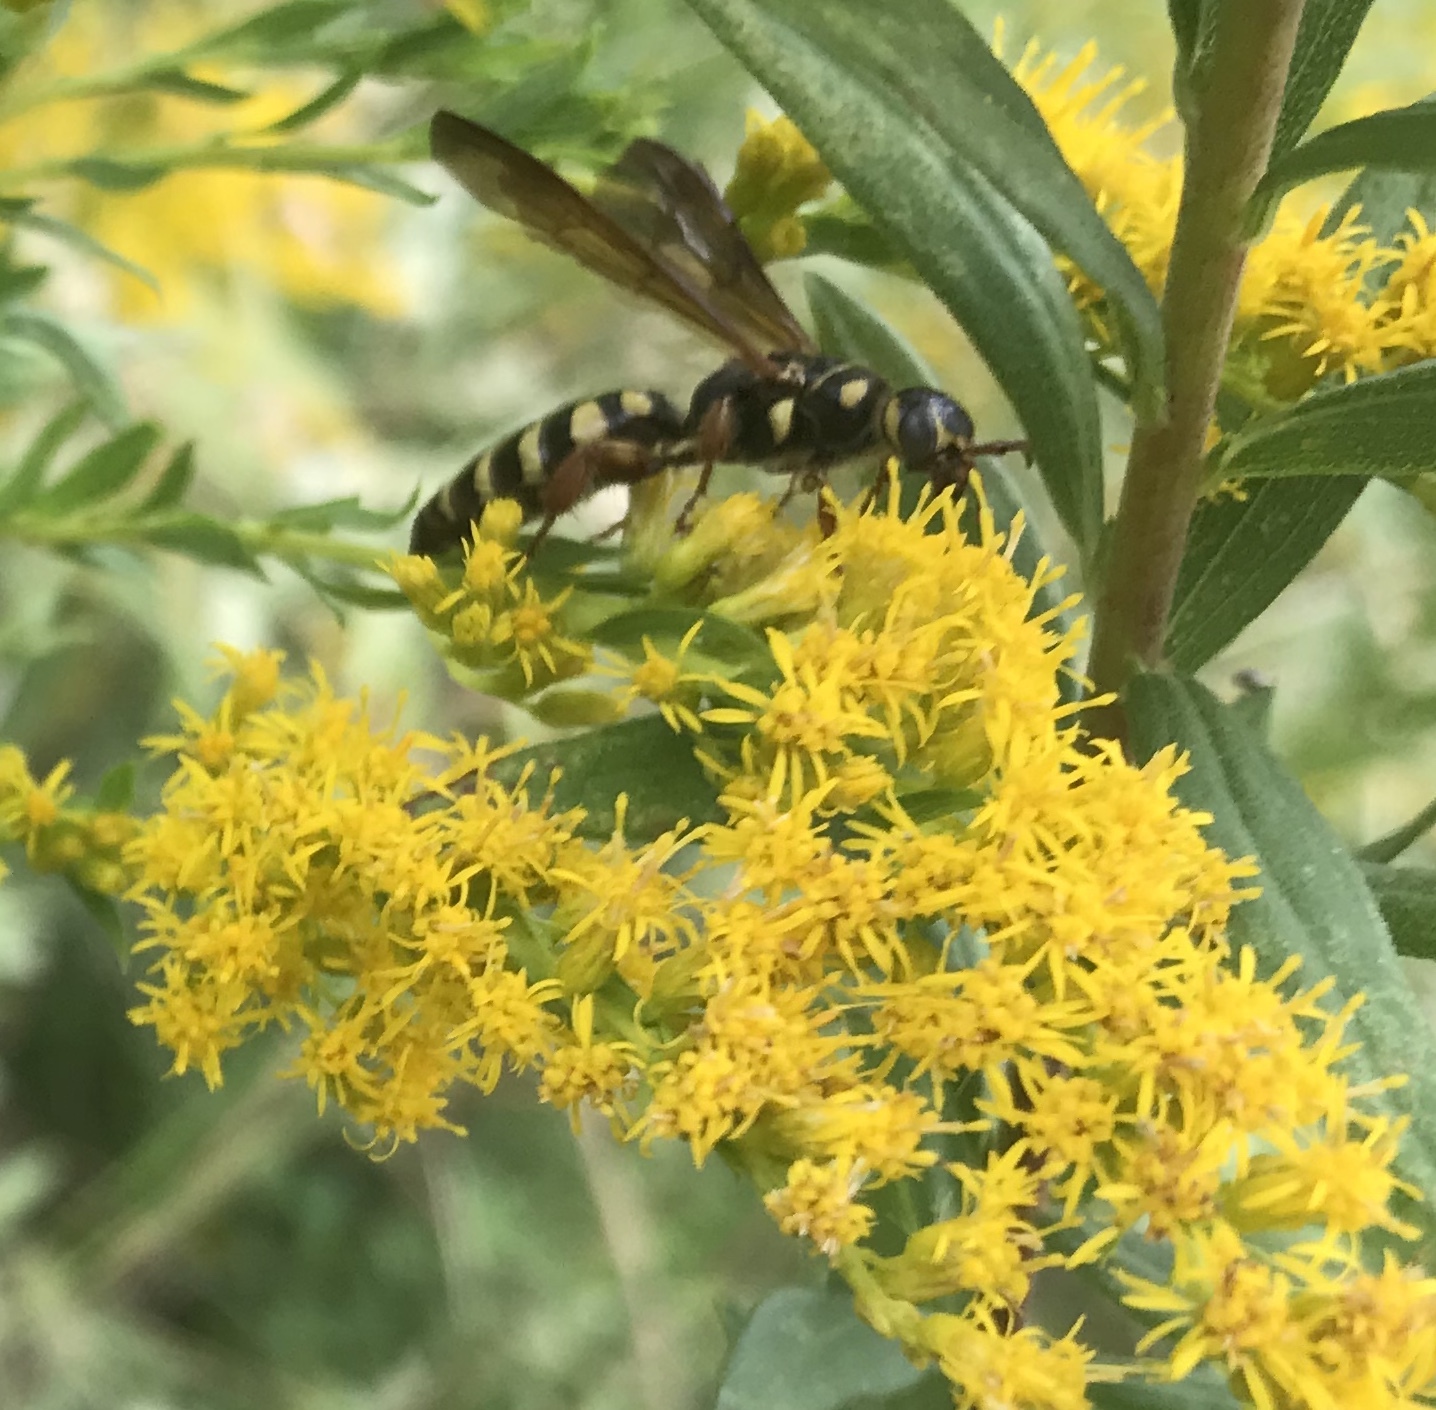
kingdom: Animalia
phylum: Arthropoda
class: Insecta
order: Hymenoptera
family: Tiphiidae
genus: Myzinum
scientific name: Myzinum quinquecinctum
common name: Five-banded thynnid wasp
